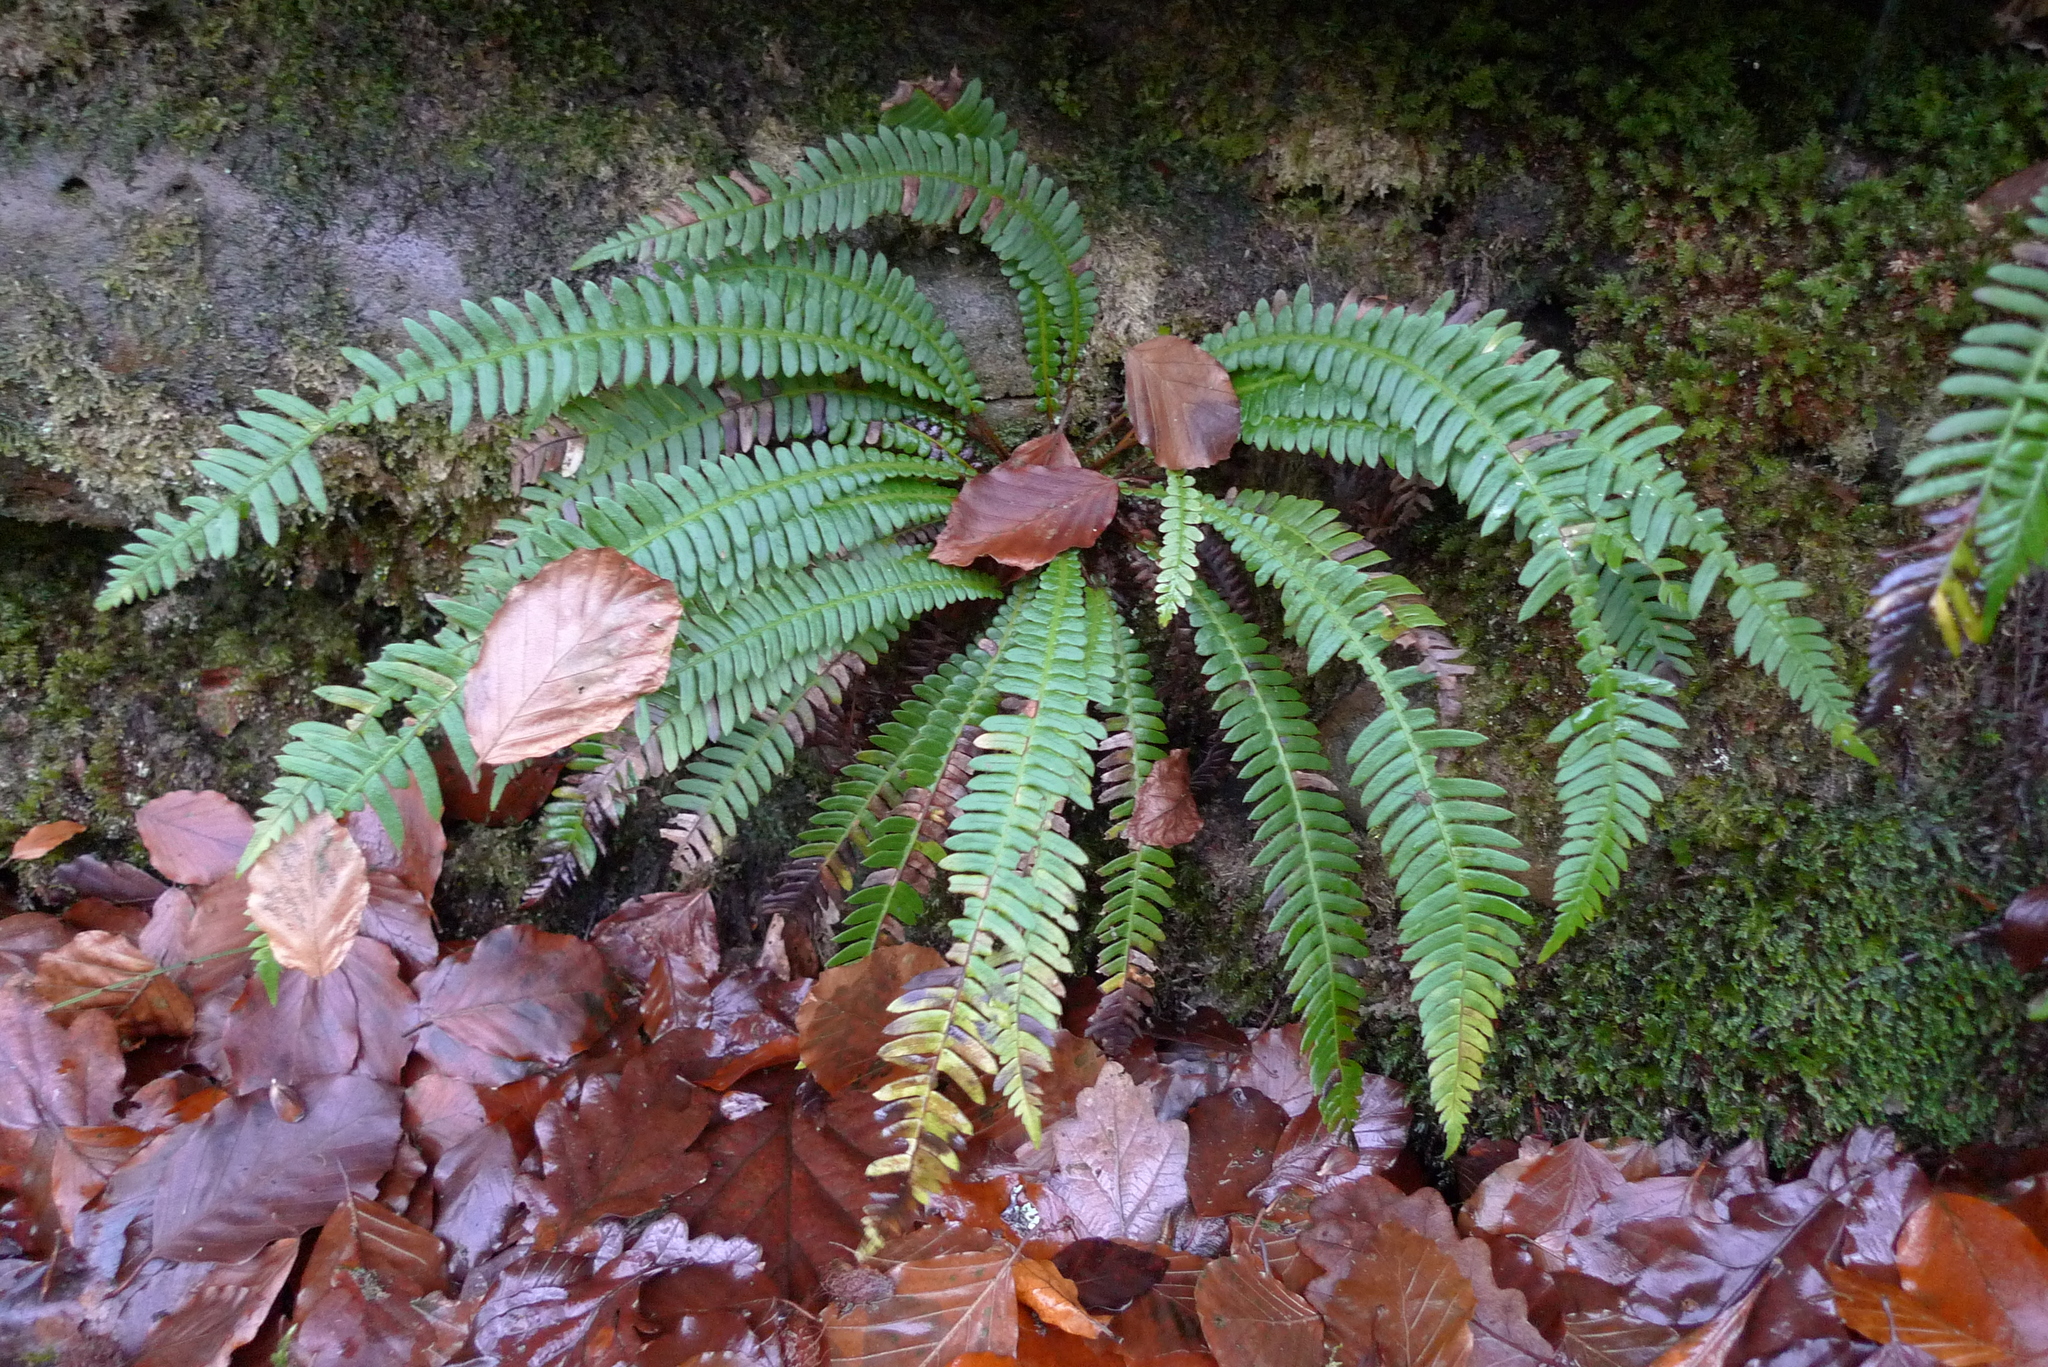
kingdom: Plantae
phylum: Tracheophyta
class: Polypodiopsida
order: Polypodiales
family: Blechnaceae
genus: Struthiopteris
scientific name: Struthiopteris spicant
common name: Deer fern
